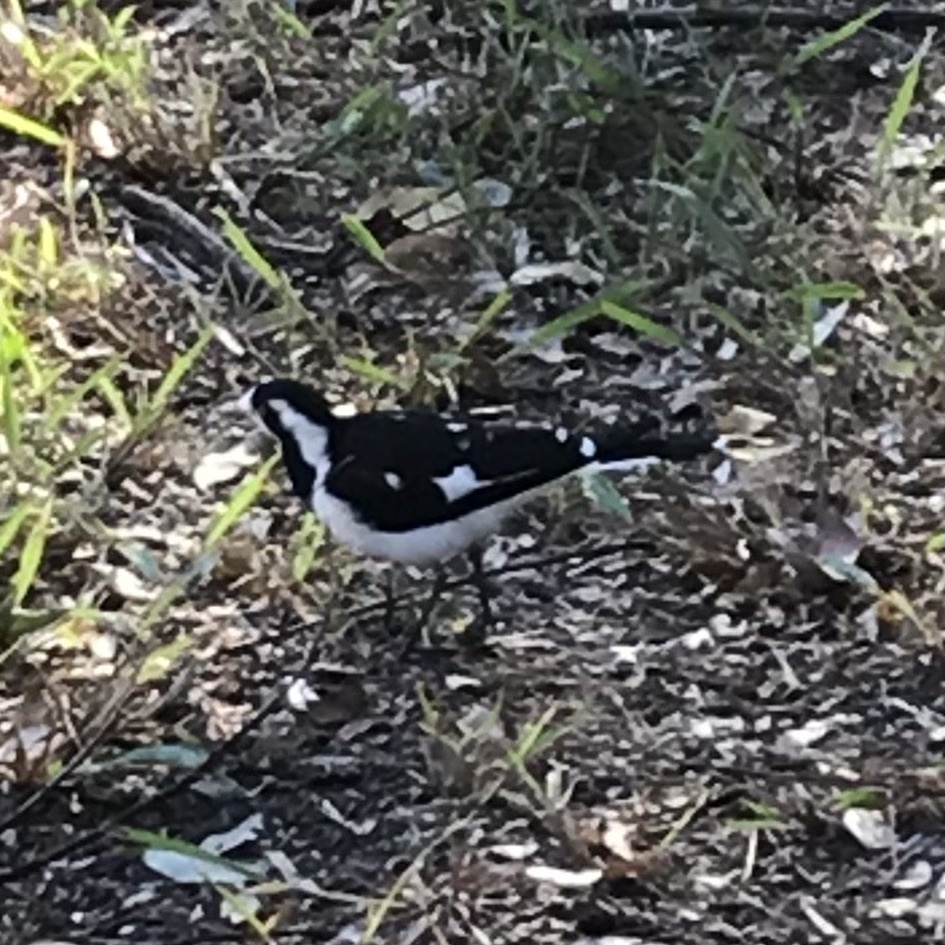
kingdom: Animalia
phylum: Chordata
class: Aves
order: Passeriformes
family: Monarchidae
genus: Grallina
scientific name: Grallina cyanoleuca
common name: Magpie-lark
